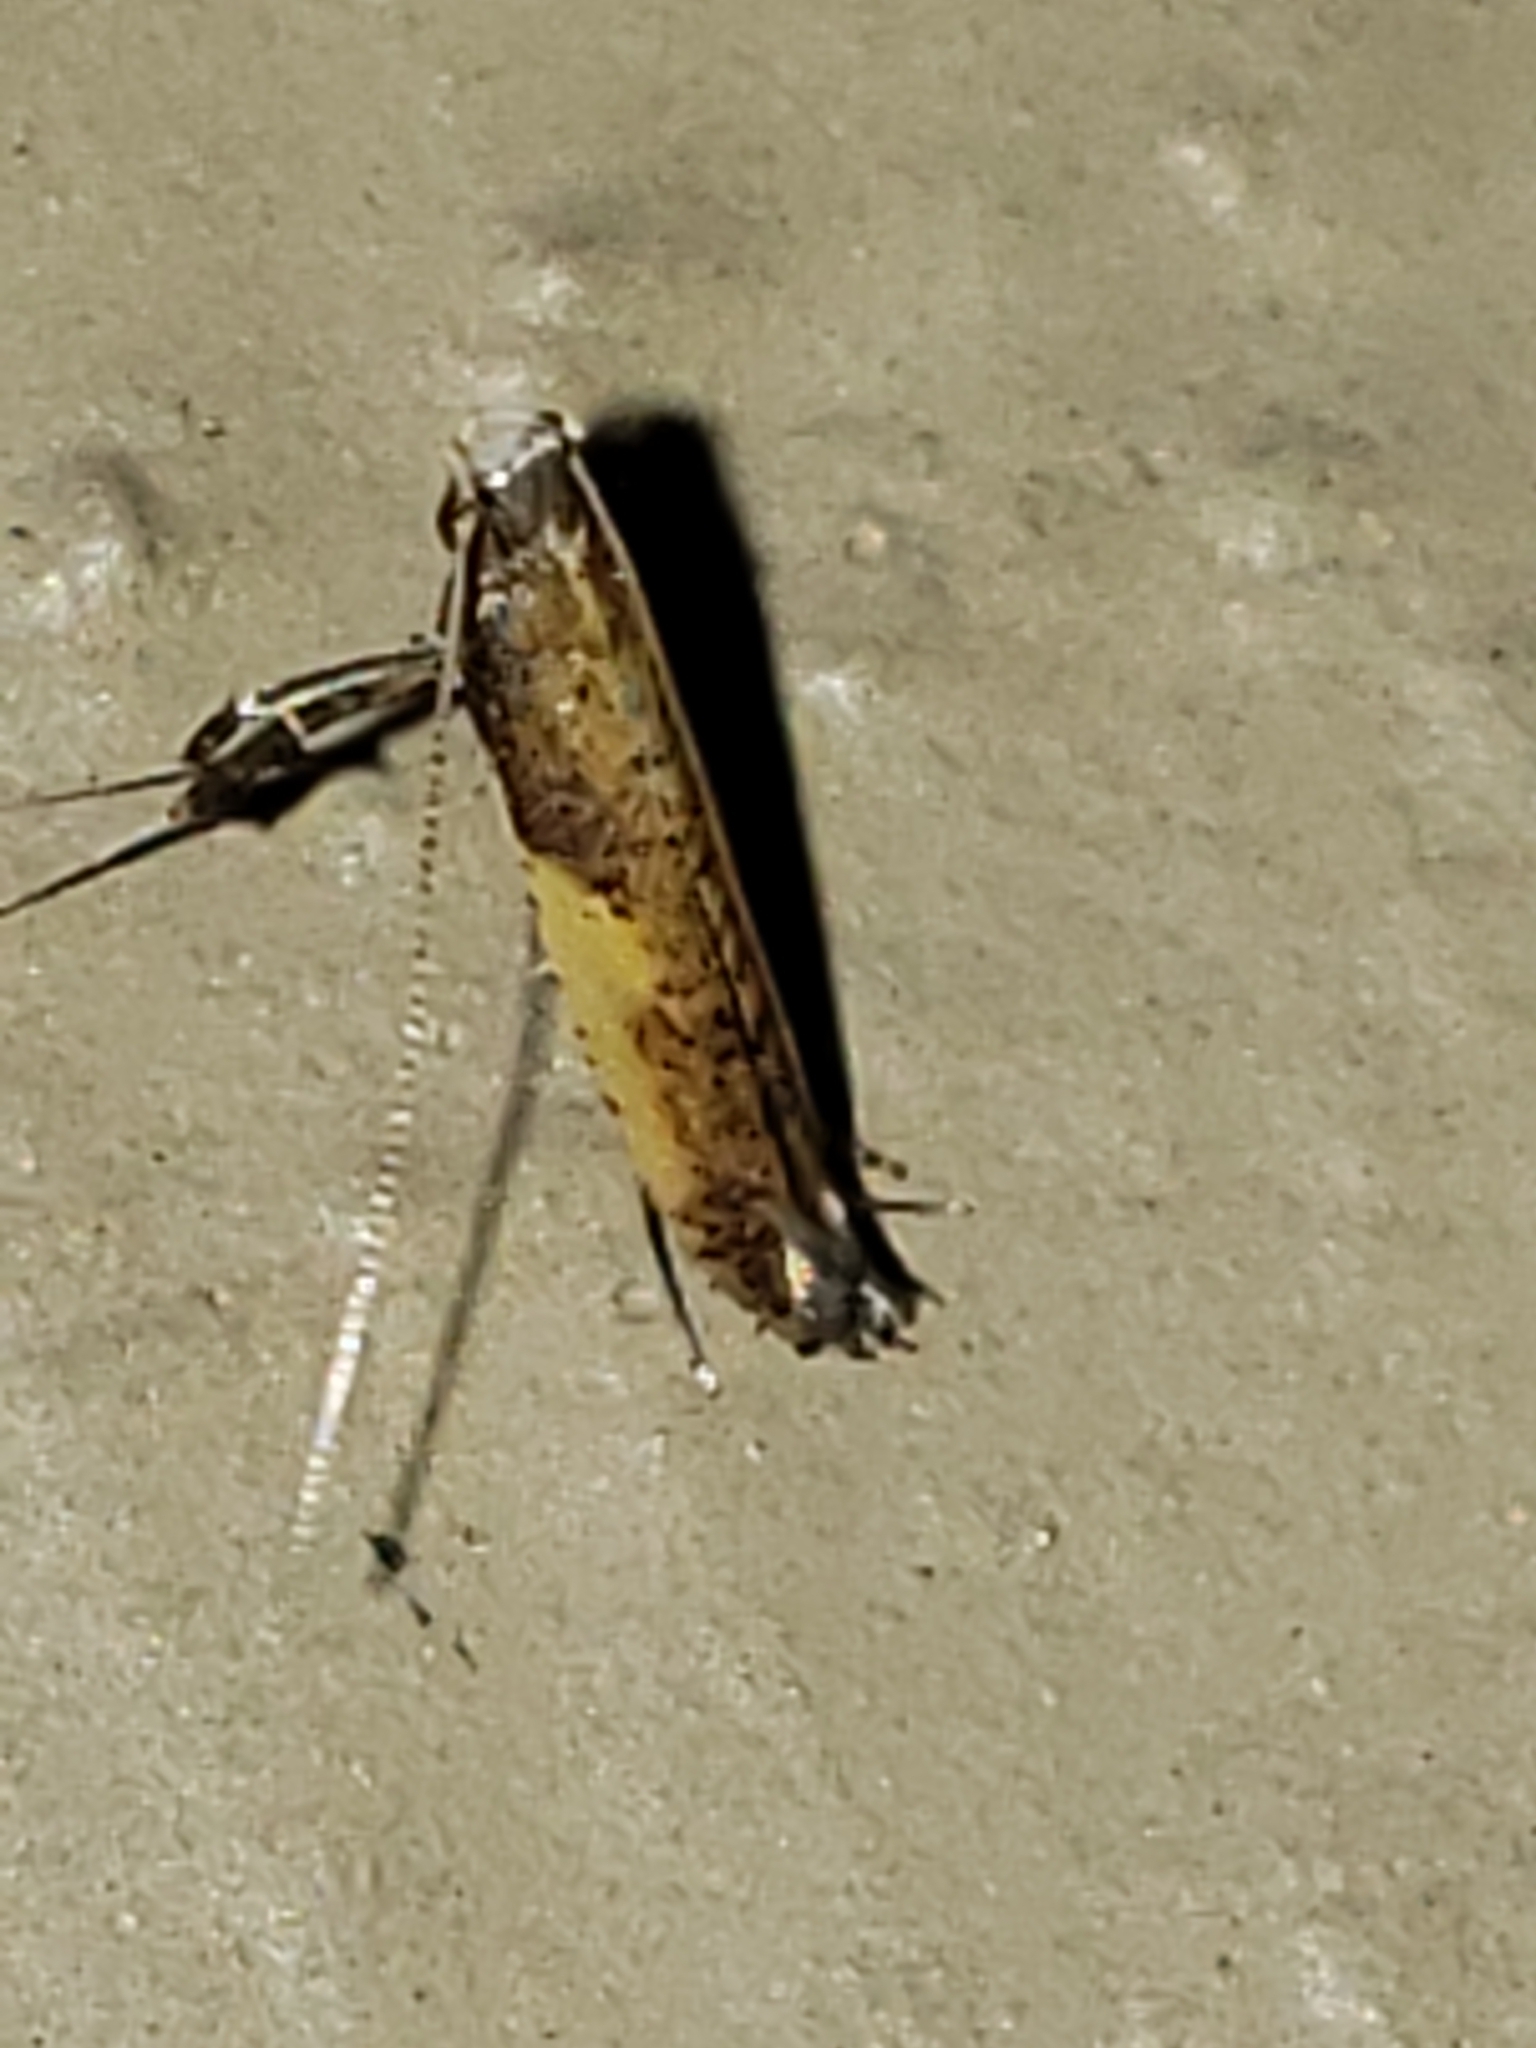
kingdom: Animalia
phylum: Arthropoda
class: Insecta
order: Lepidoptera
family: Gracillariidae
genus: Caloptilia
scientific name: Caloptilia azaleella
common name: Azalea leafminer
